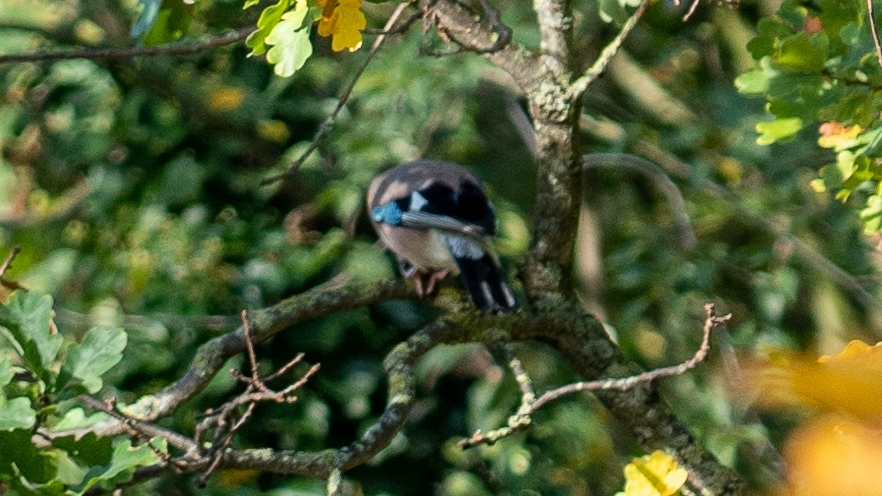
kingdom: Animalia
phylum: Chordata
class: Aves
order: Passeriformes
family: Corvidae
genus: Garrulus
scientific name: Garrulus glandarius
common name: Eurasian jay
